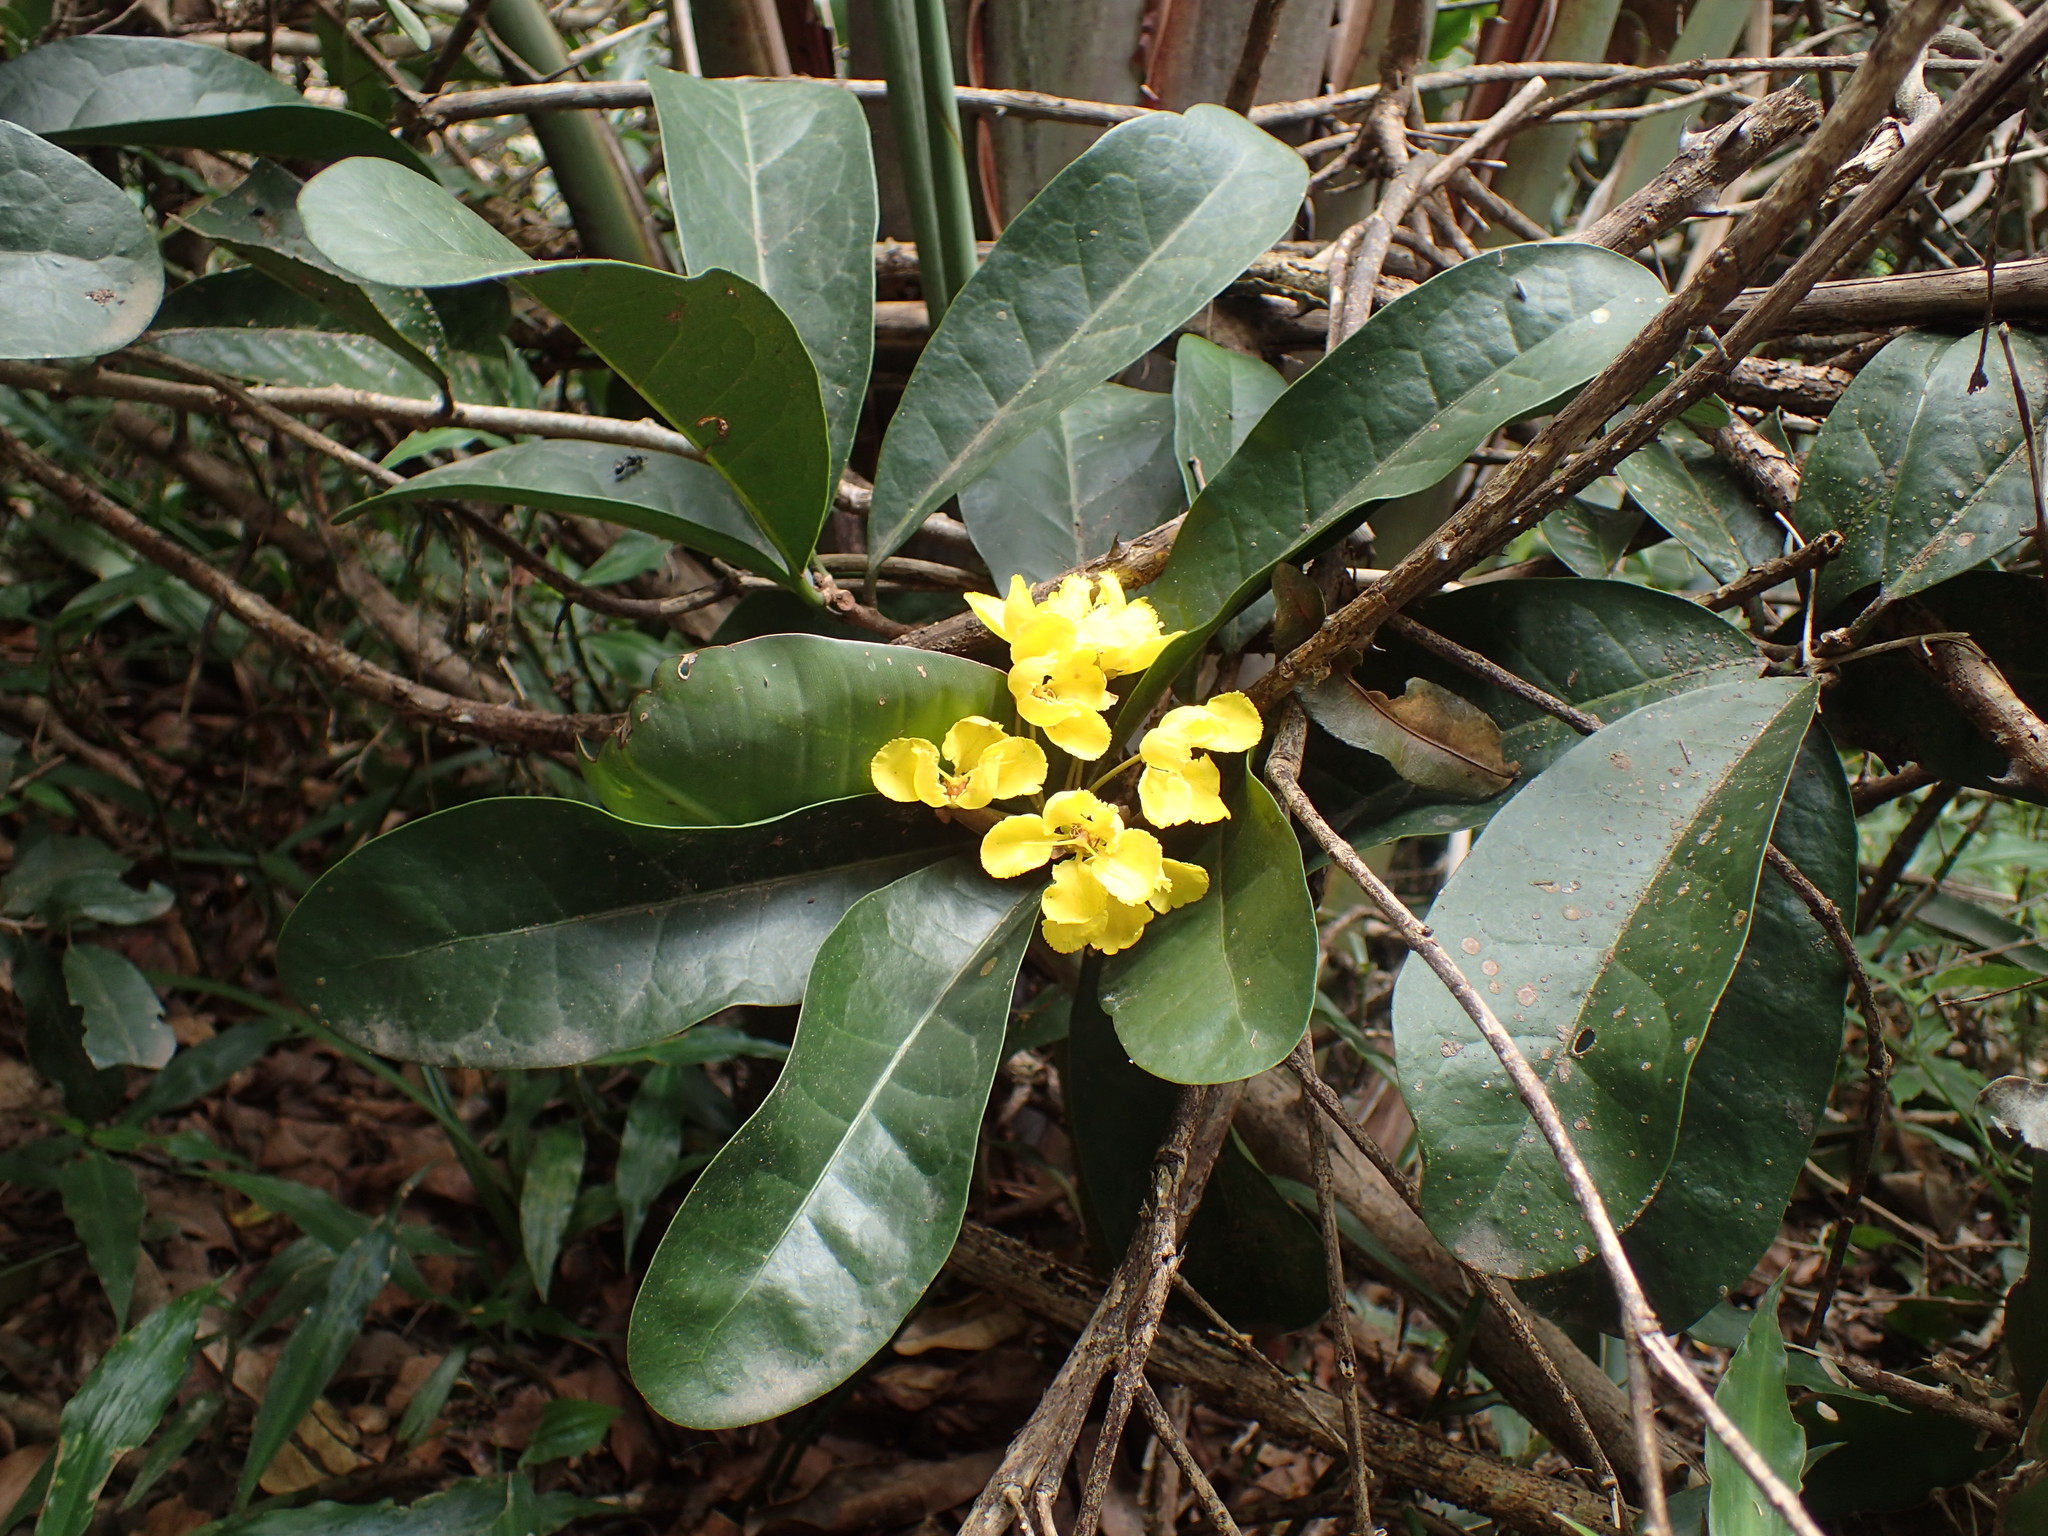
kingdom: Plantae
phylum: Tracheophyta
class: Magnoliopsida
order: Malpighiales
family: Malpighiaceae
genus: Acridocarpus
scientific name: Acridocarpus natalitius
